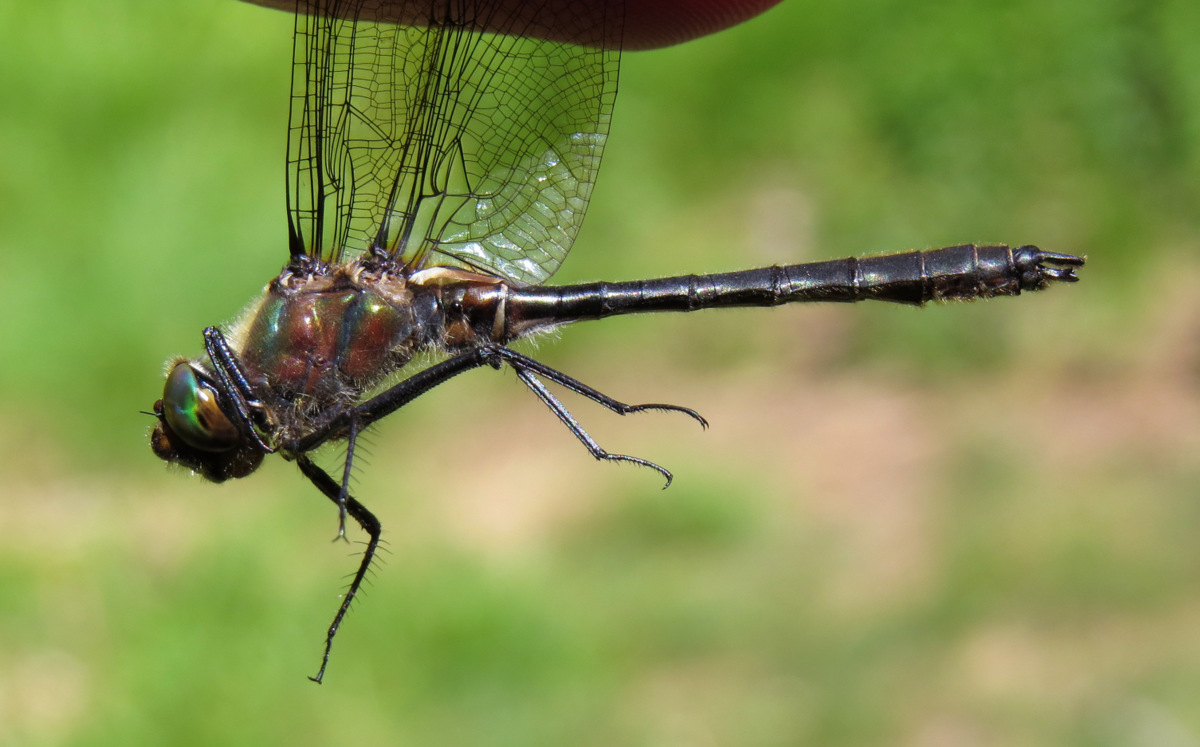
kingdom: Animalia
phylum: Arthropoda
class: Insecta
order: Odonata
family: Corduliidae
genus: Cordulia
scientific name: Cordulia shurtleffii
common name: American emerald
